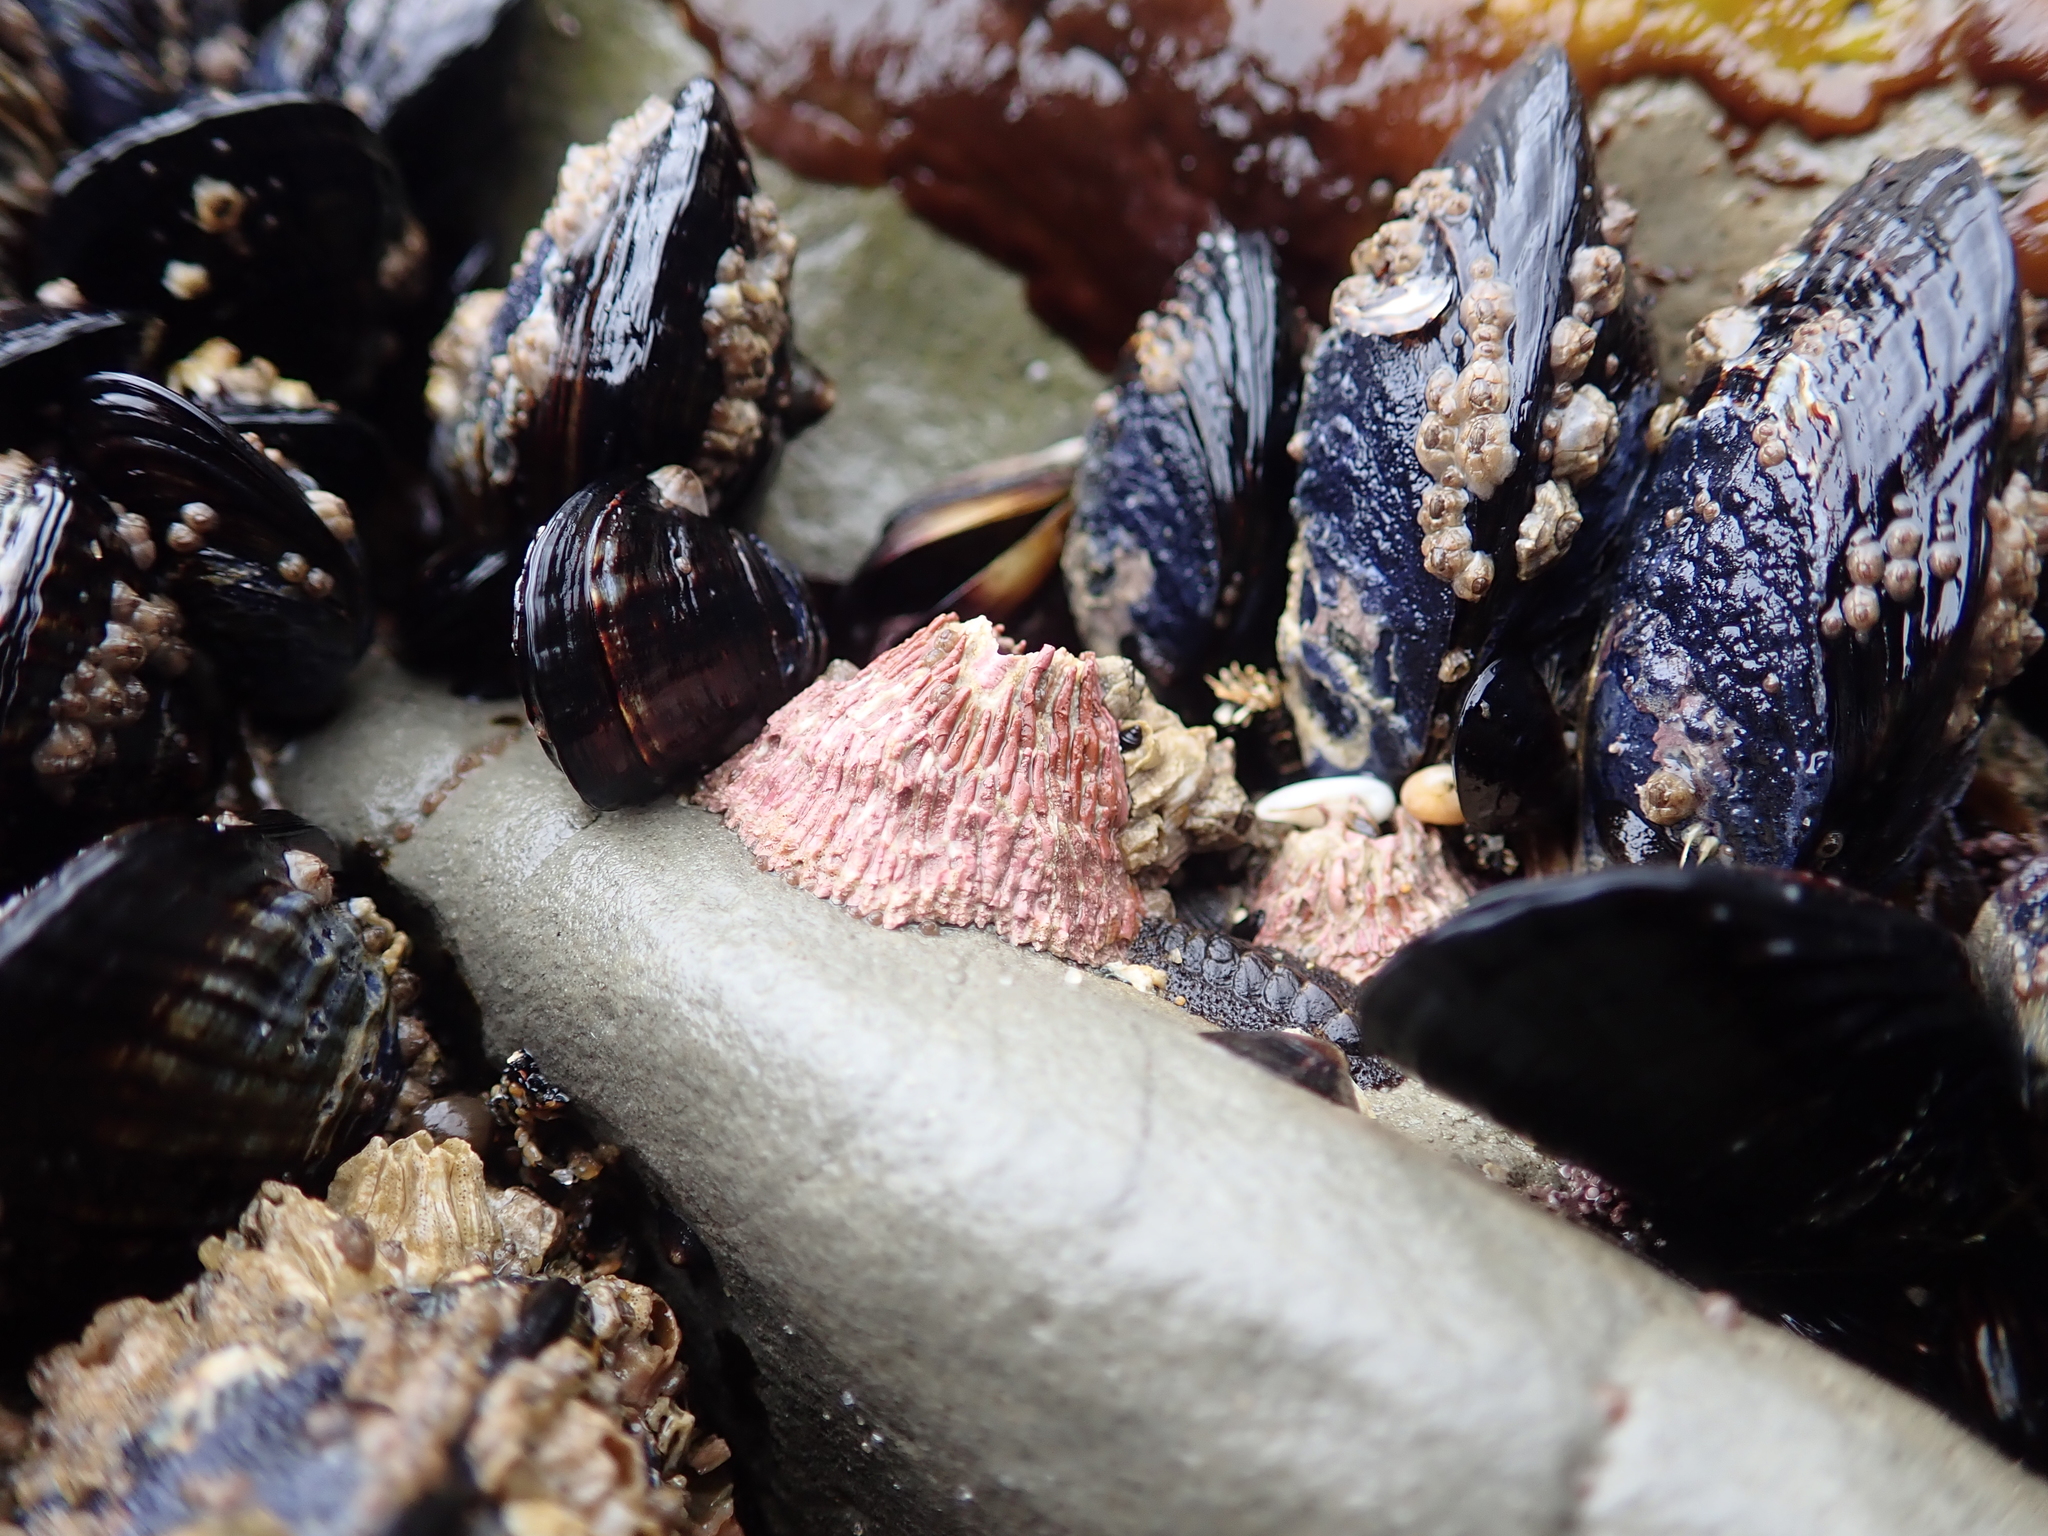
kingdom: Animalia
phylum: Arthropoda
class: Maxillopoda
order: Sessilia
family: Tetraclitidae
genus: Tetraclita
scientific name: Tetraclita rubescens
